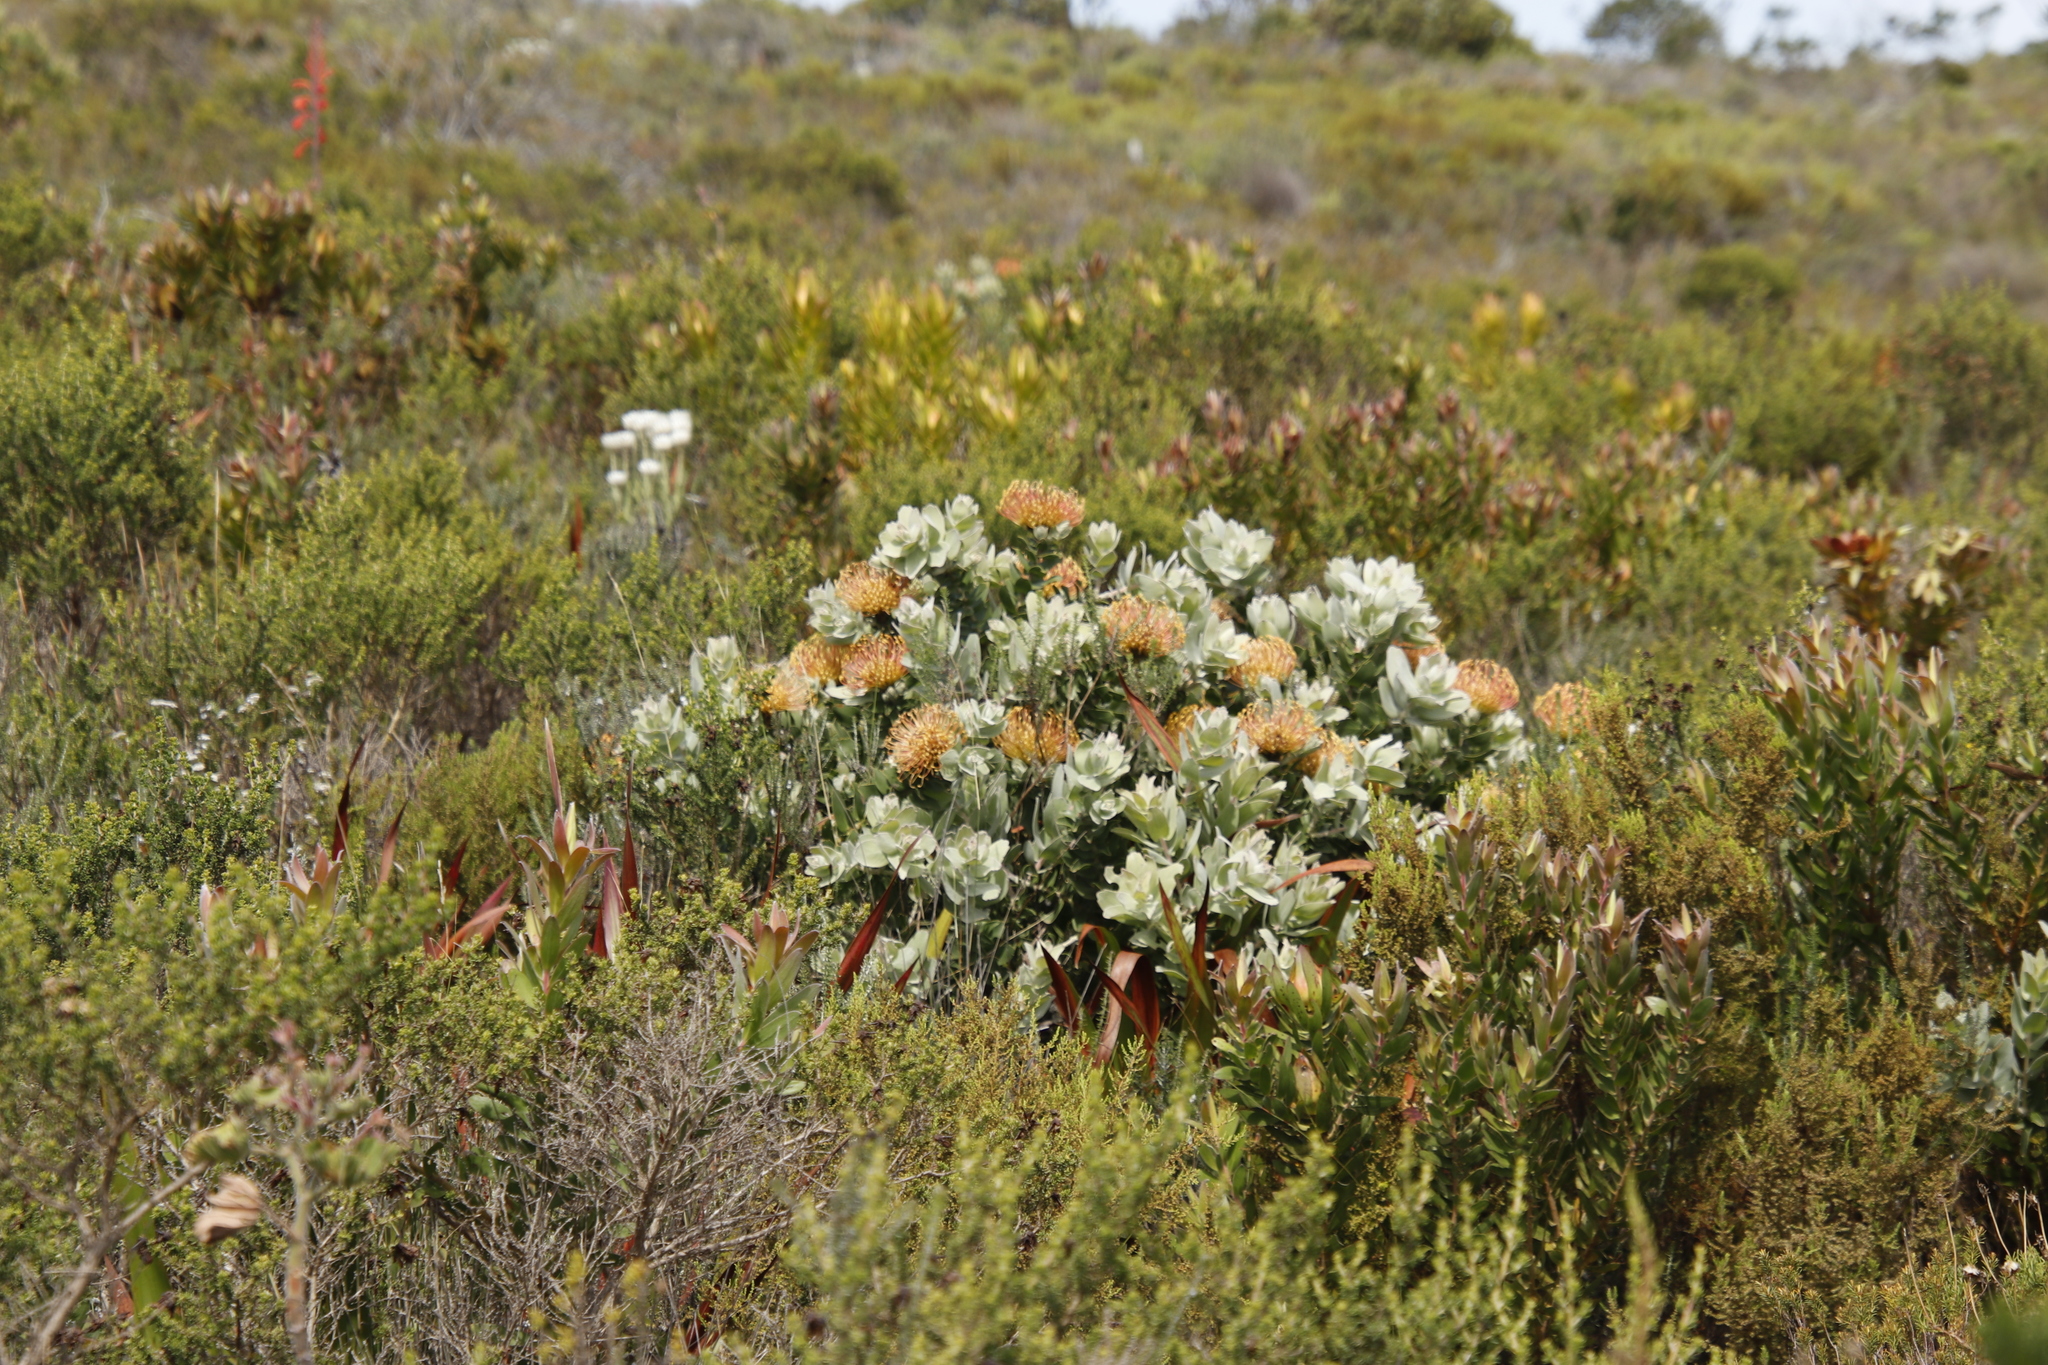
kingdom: Plantae
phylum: Tracheophyta
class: Magnoliopsida
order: Proteales
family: Proteaceae
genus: Leucospermum
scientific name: Leucospermum cordifolium
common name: Red pincushion-protea
